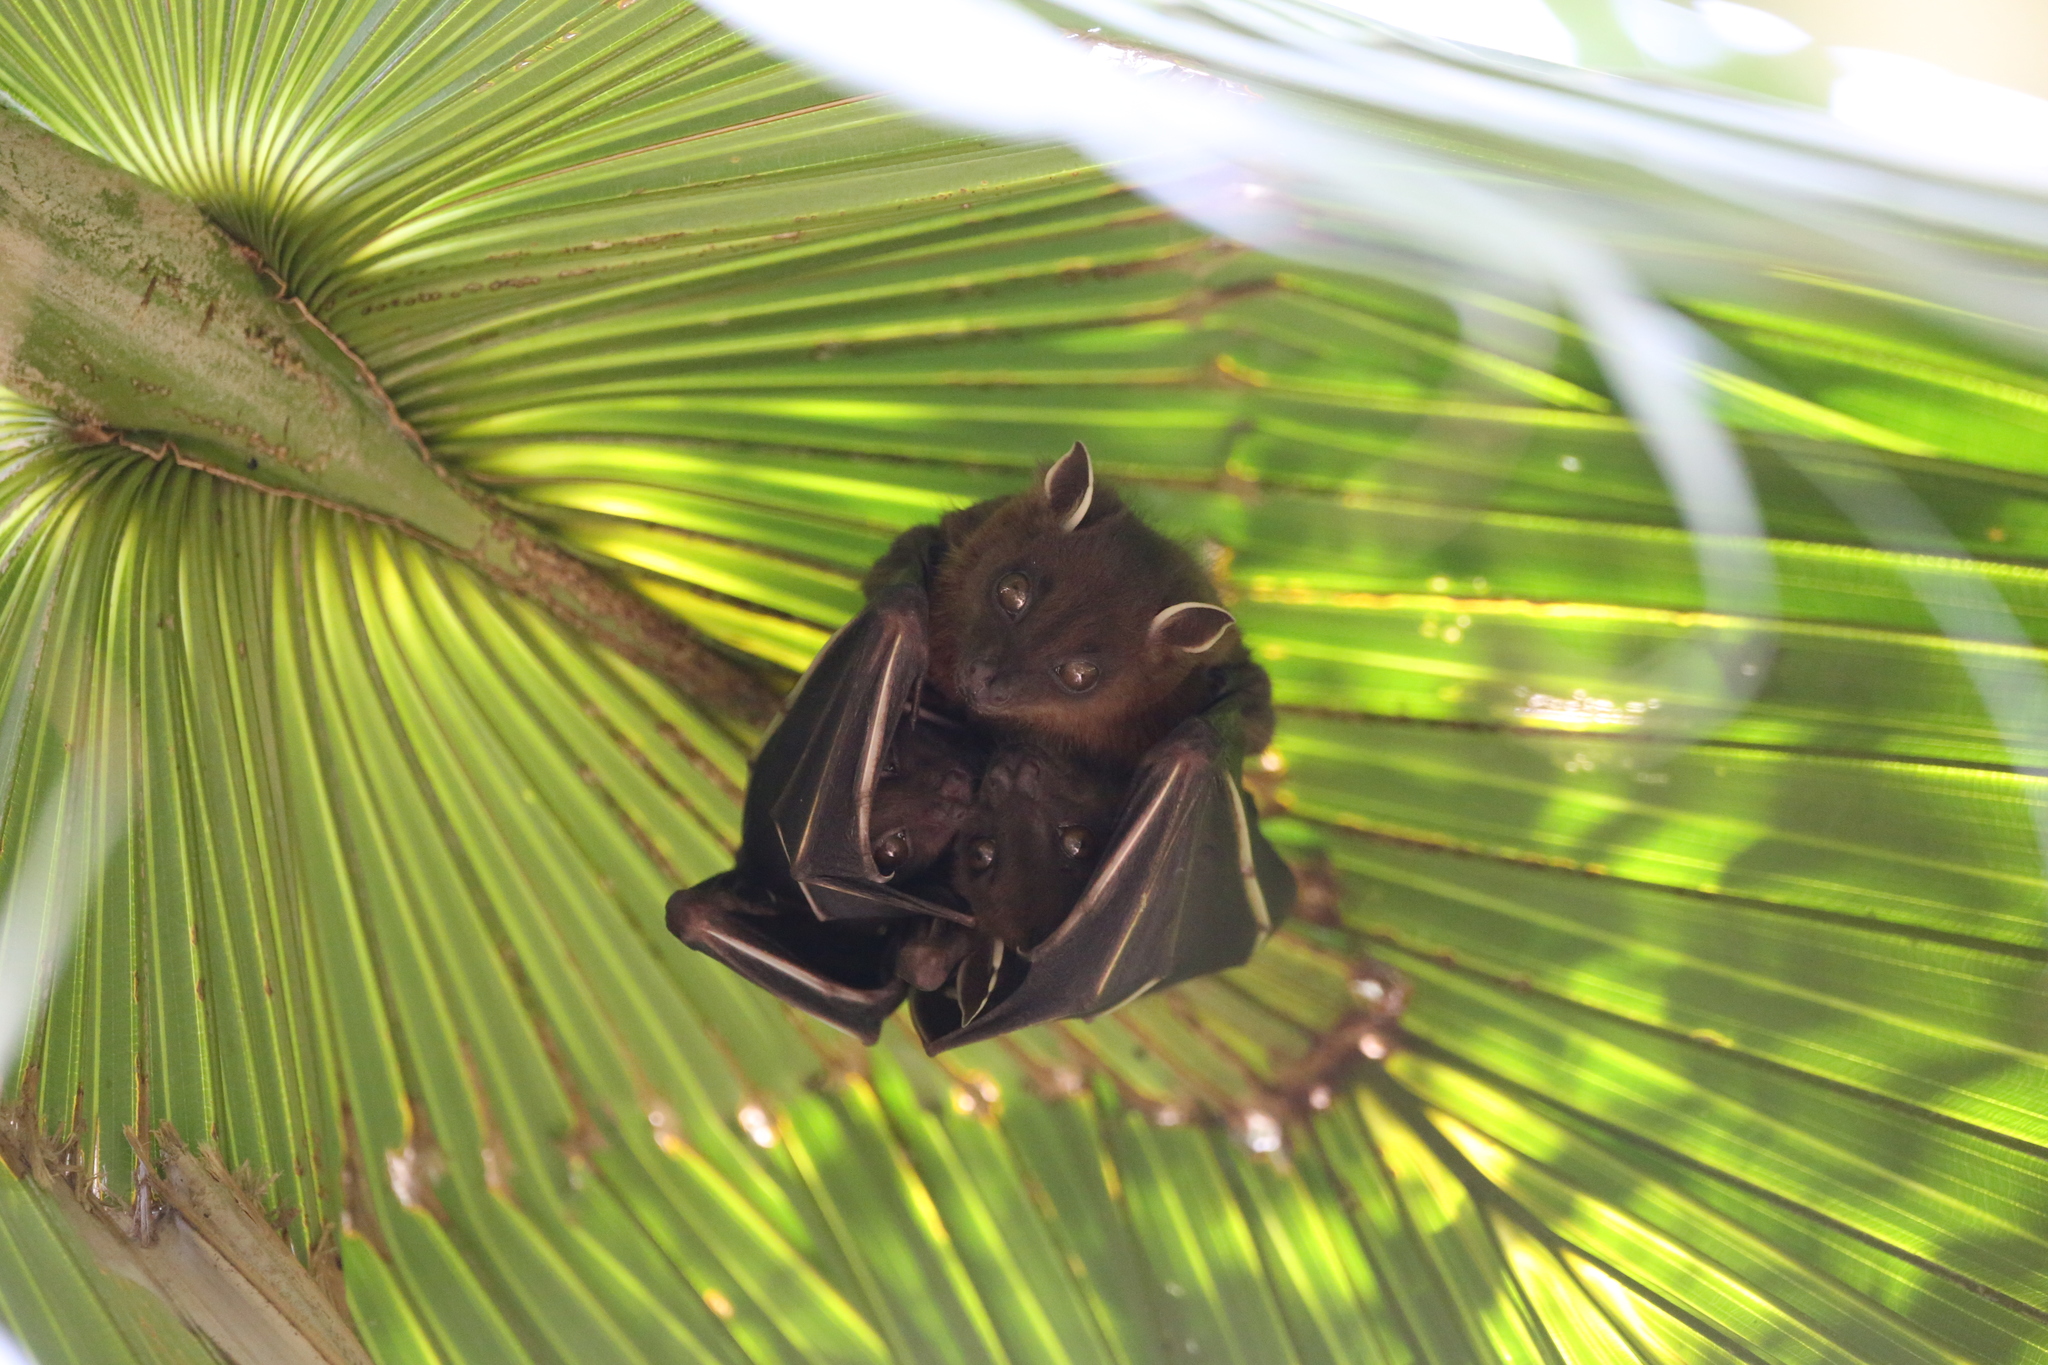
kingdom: Animalia
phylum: Chordata
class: Mammalia
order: Chiroptera
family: Pteropodidae
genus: Cynopterus
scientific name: Cynopterus sphinx
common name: Greater short-nosed fruit bat
